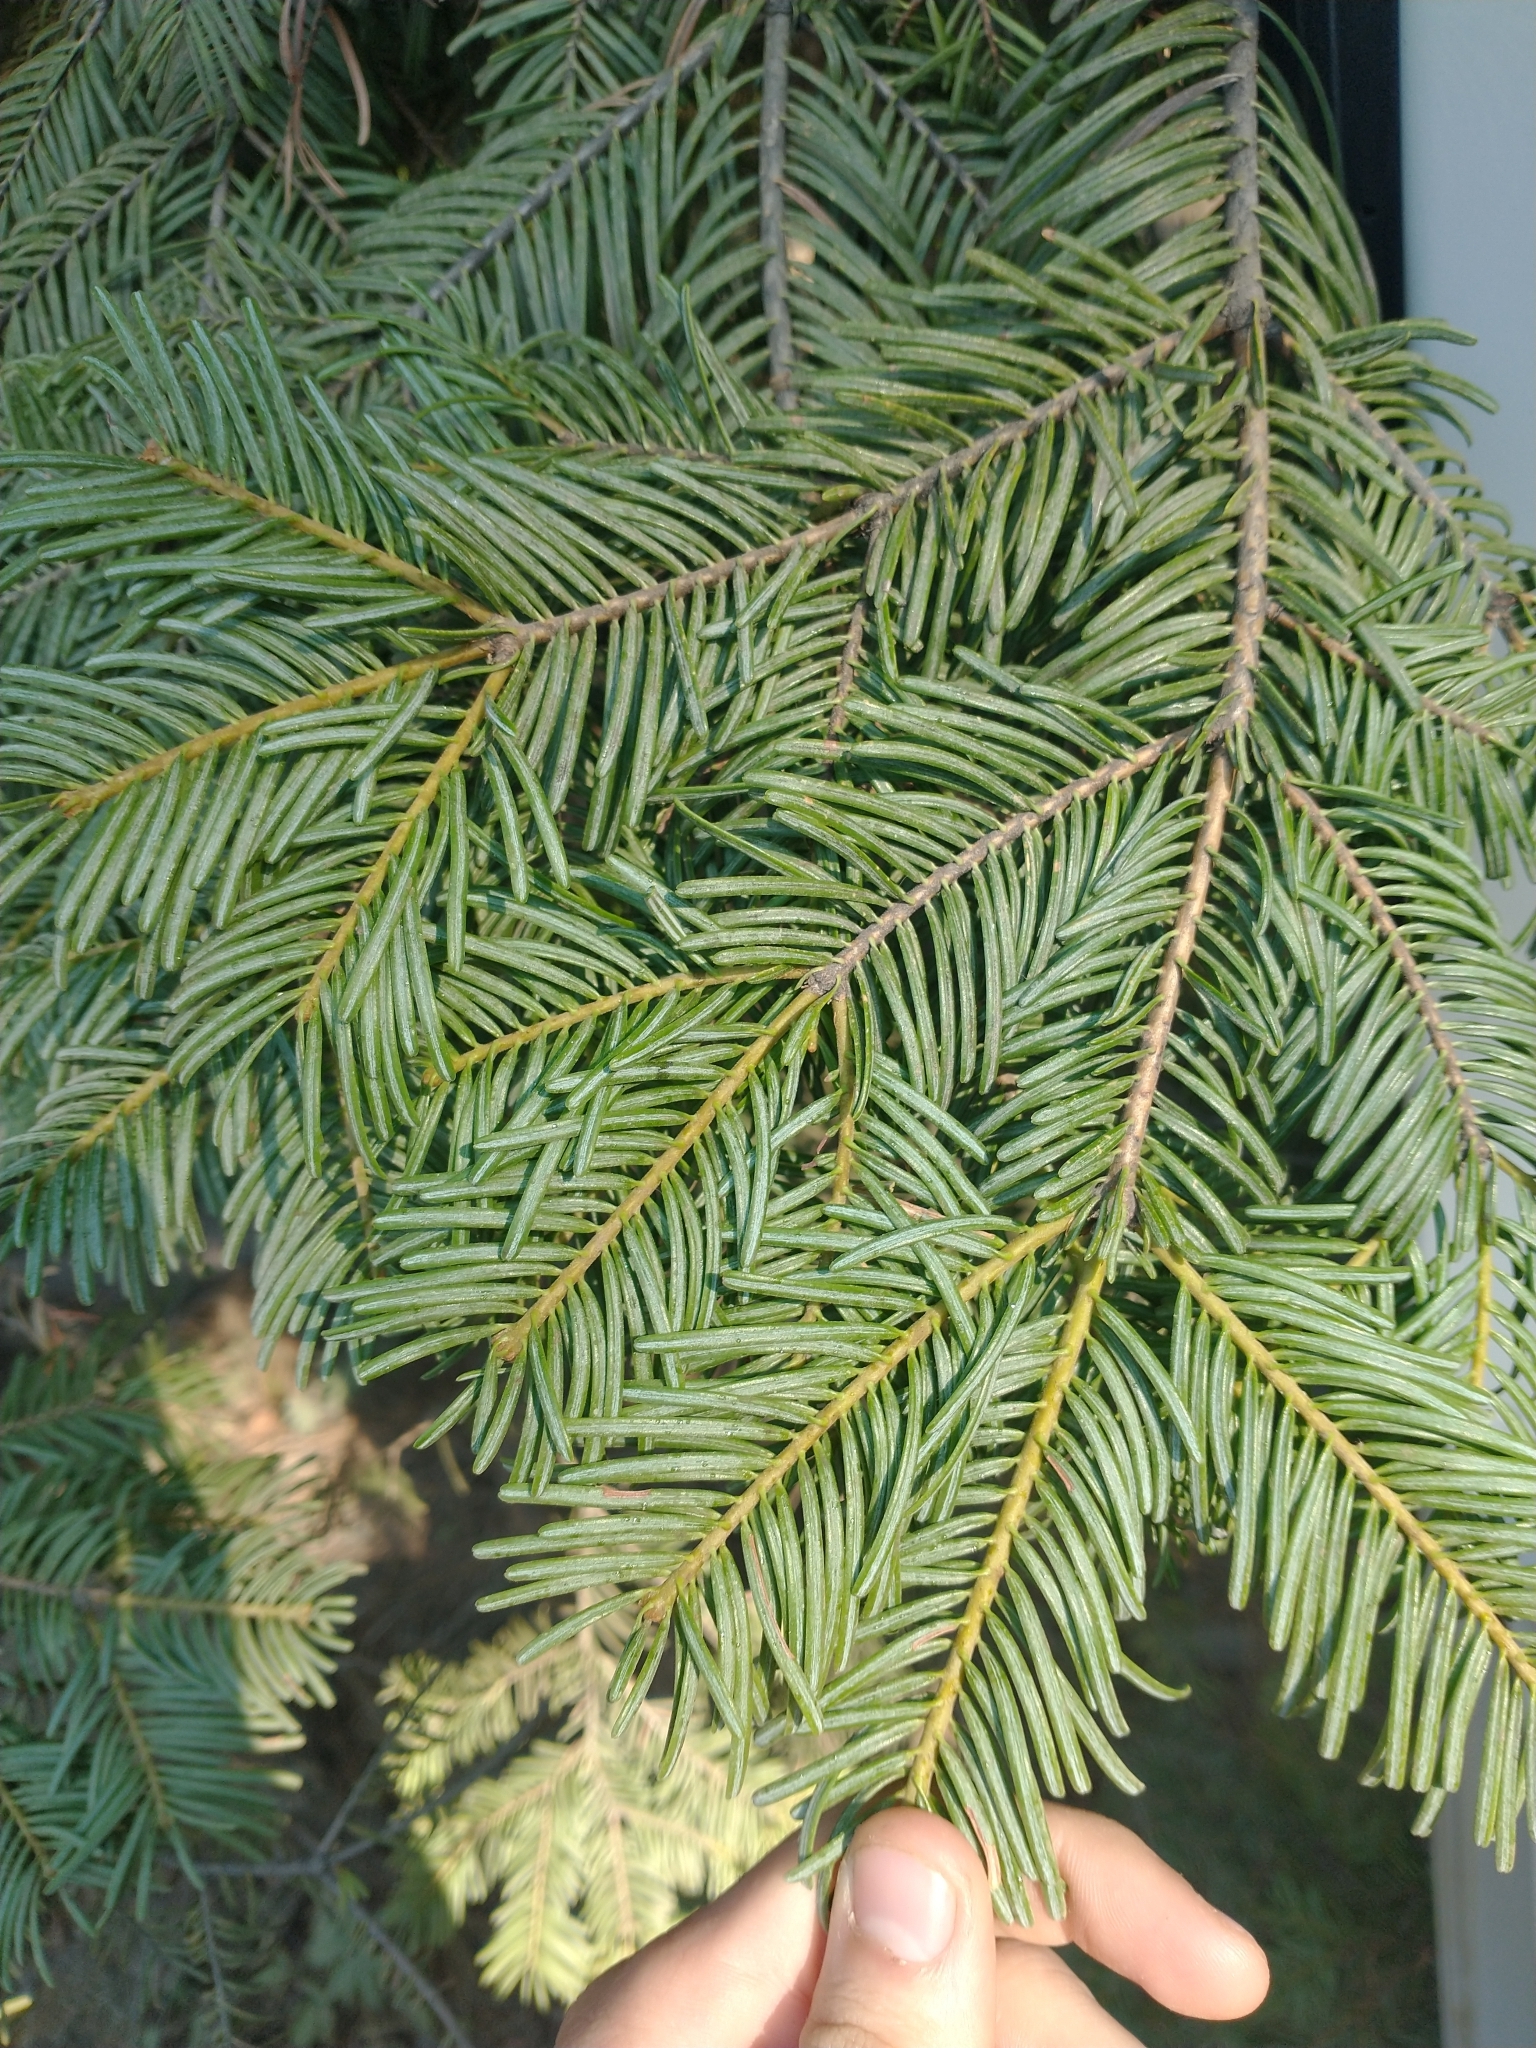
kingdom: Plantae
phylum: Tracheophyta
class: Pinopsida
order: Pinales
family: Pinaceae
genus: Abies
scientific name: Abies concolor
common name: Colorado fir
